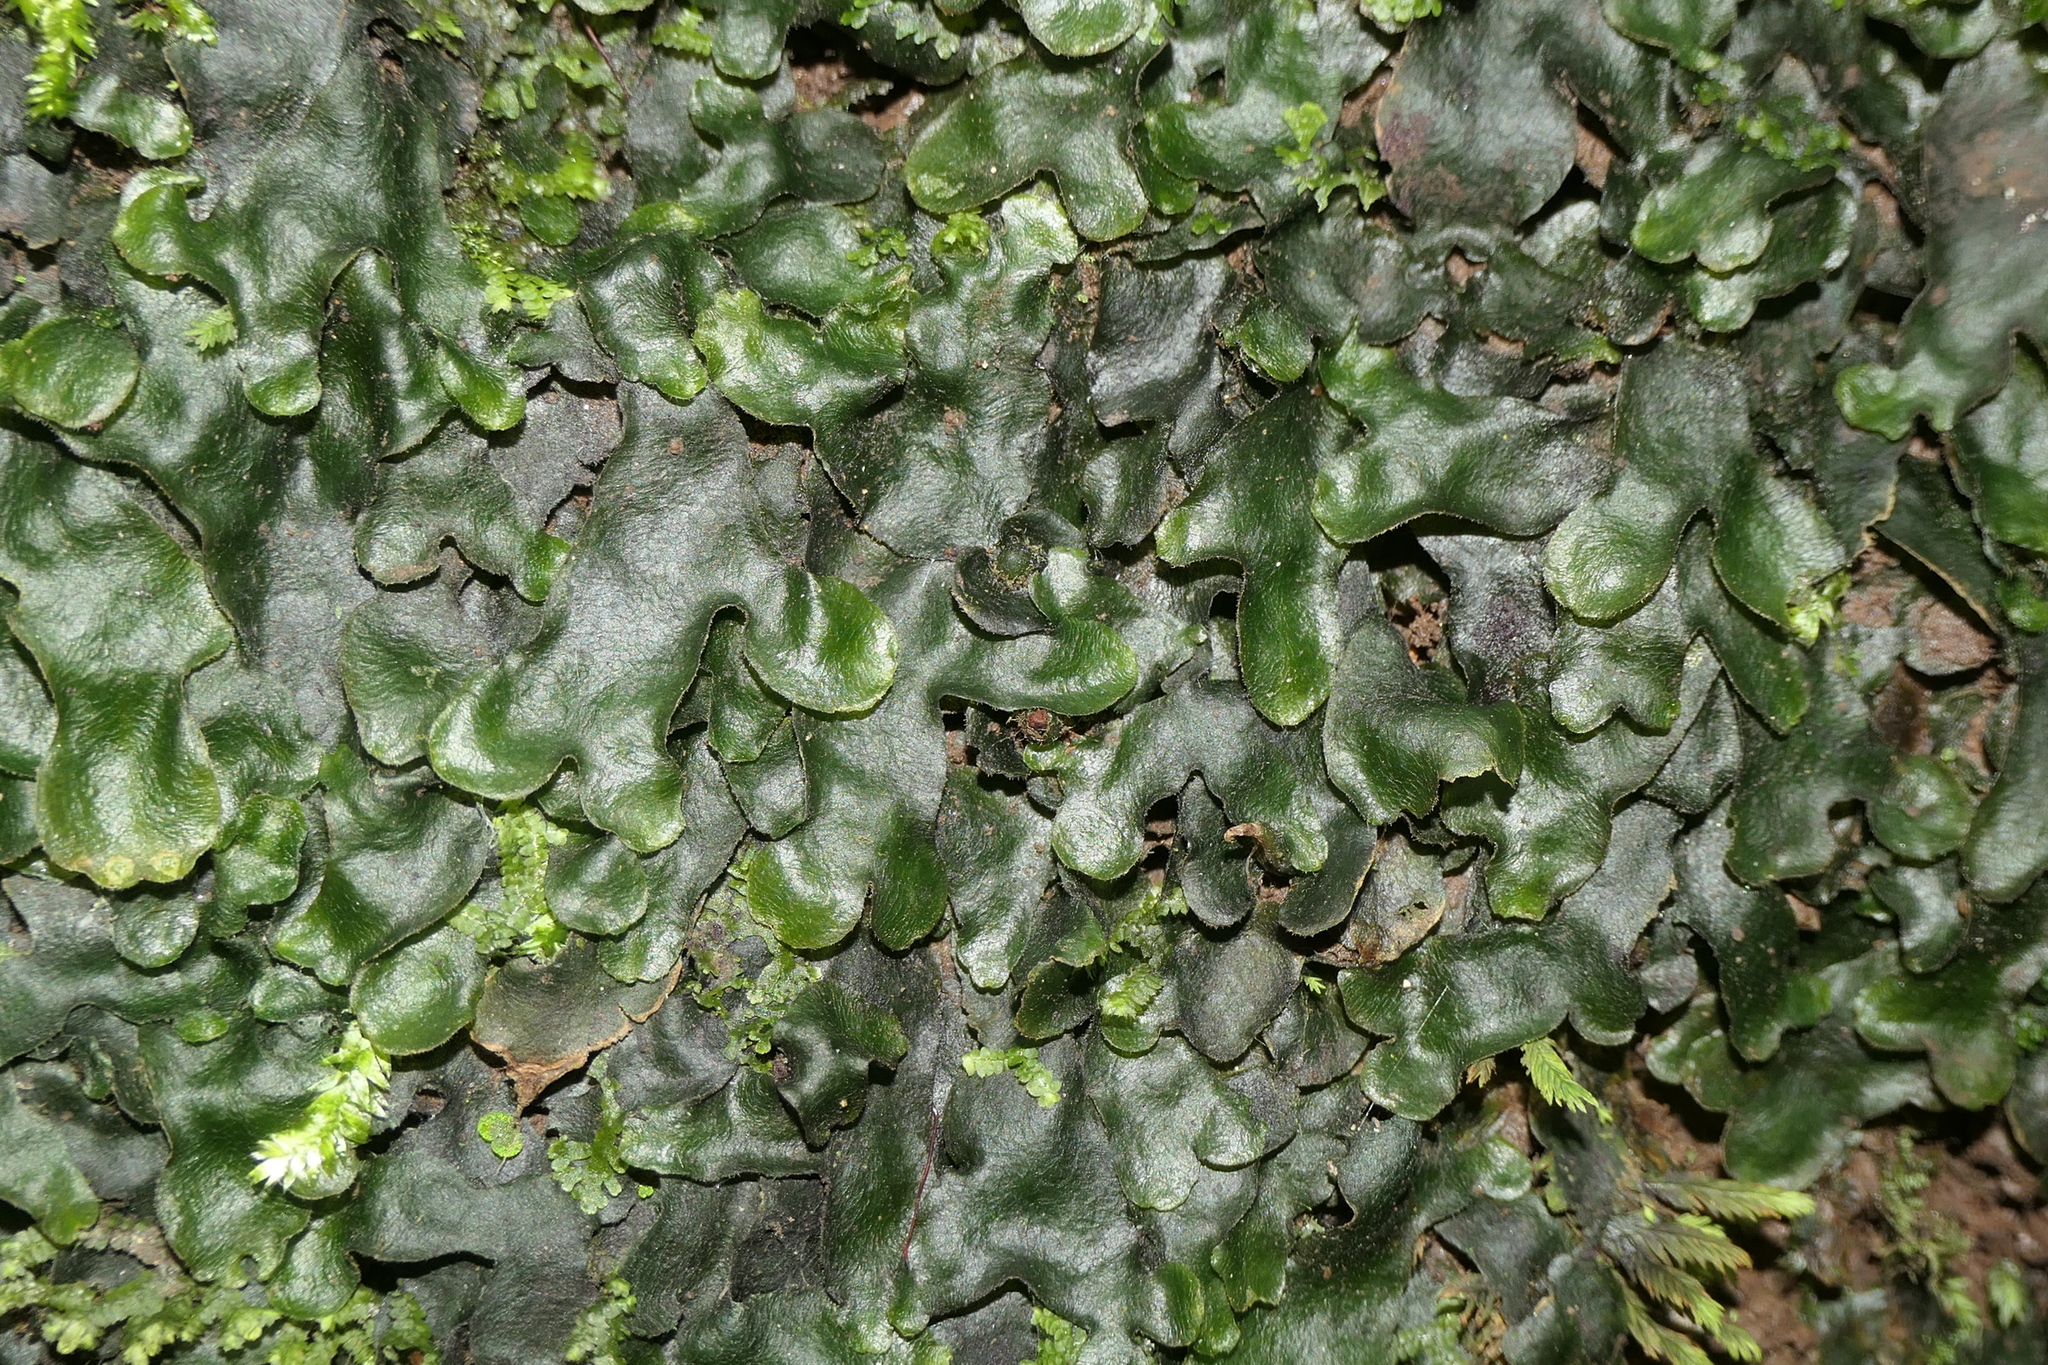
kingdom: Plantae
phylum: Marchantiophyta
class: Marchantiopsida
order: Marchantiales
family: Dumortieraceae
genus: Dumortiera
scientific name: Dumortiera hirsuta
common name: Dumortier's liverwort
